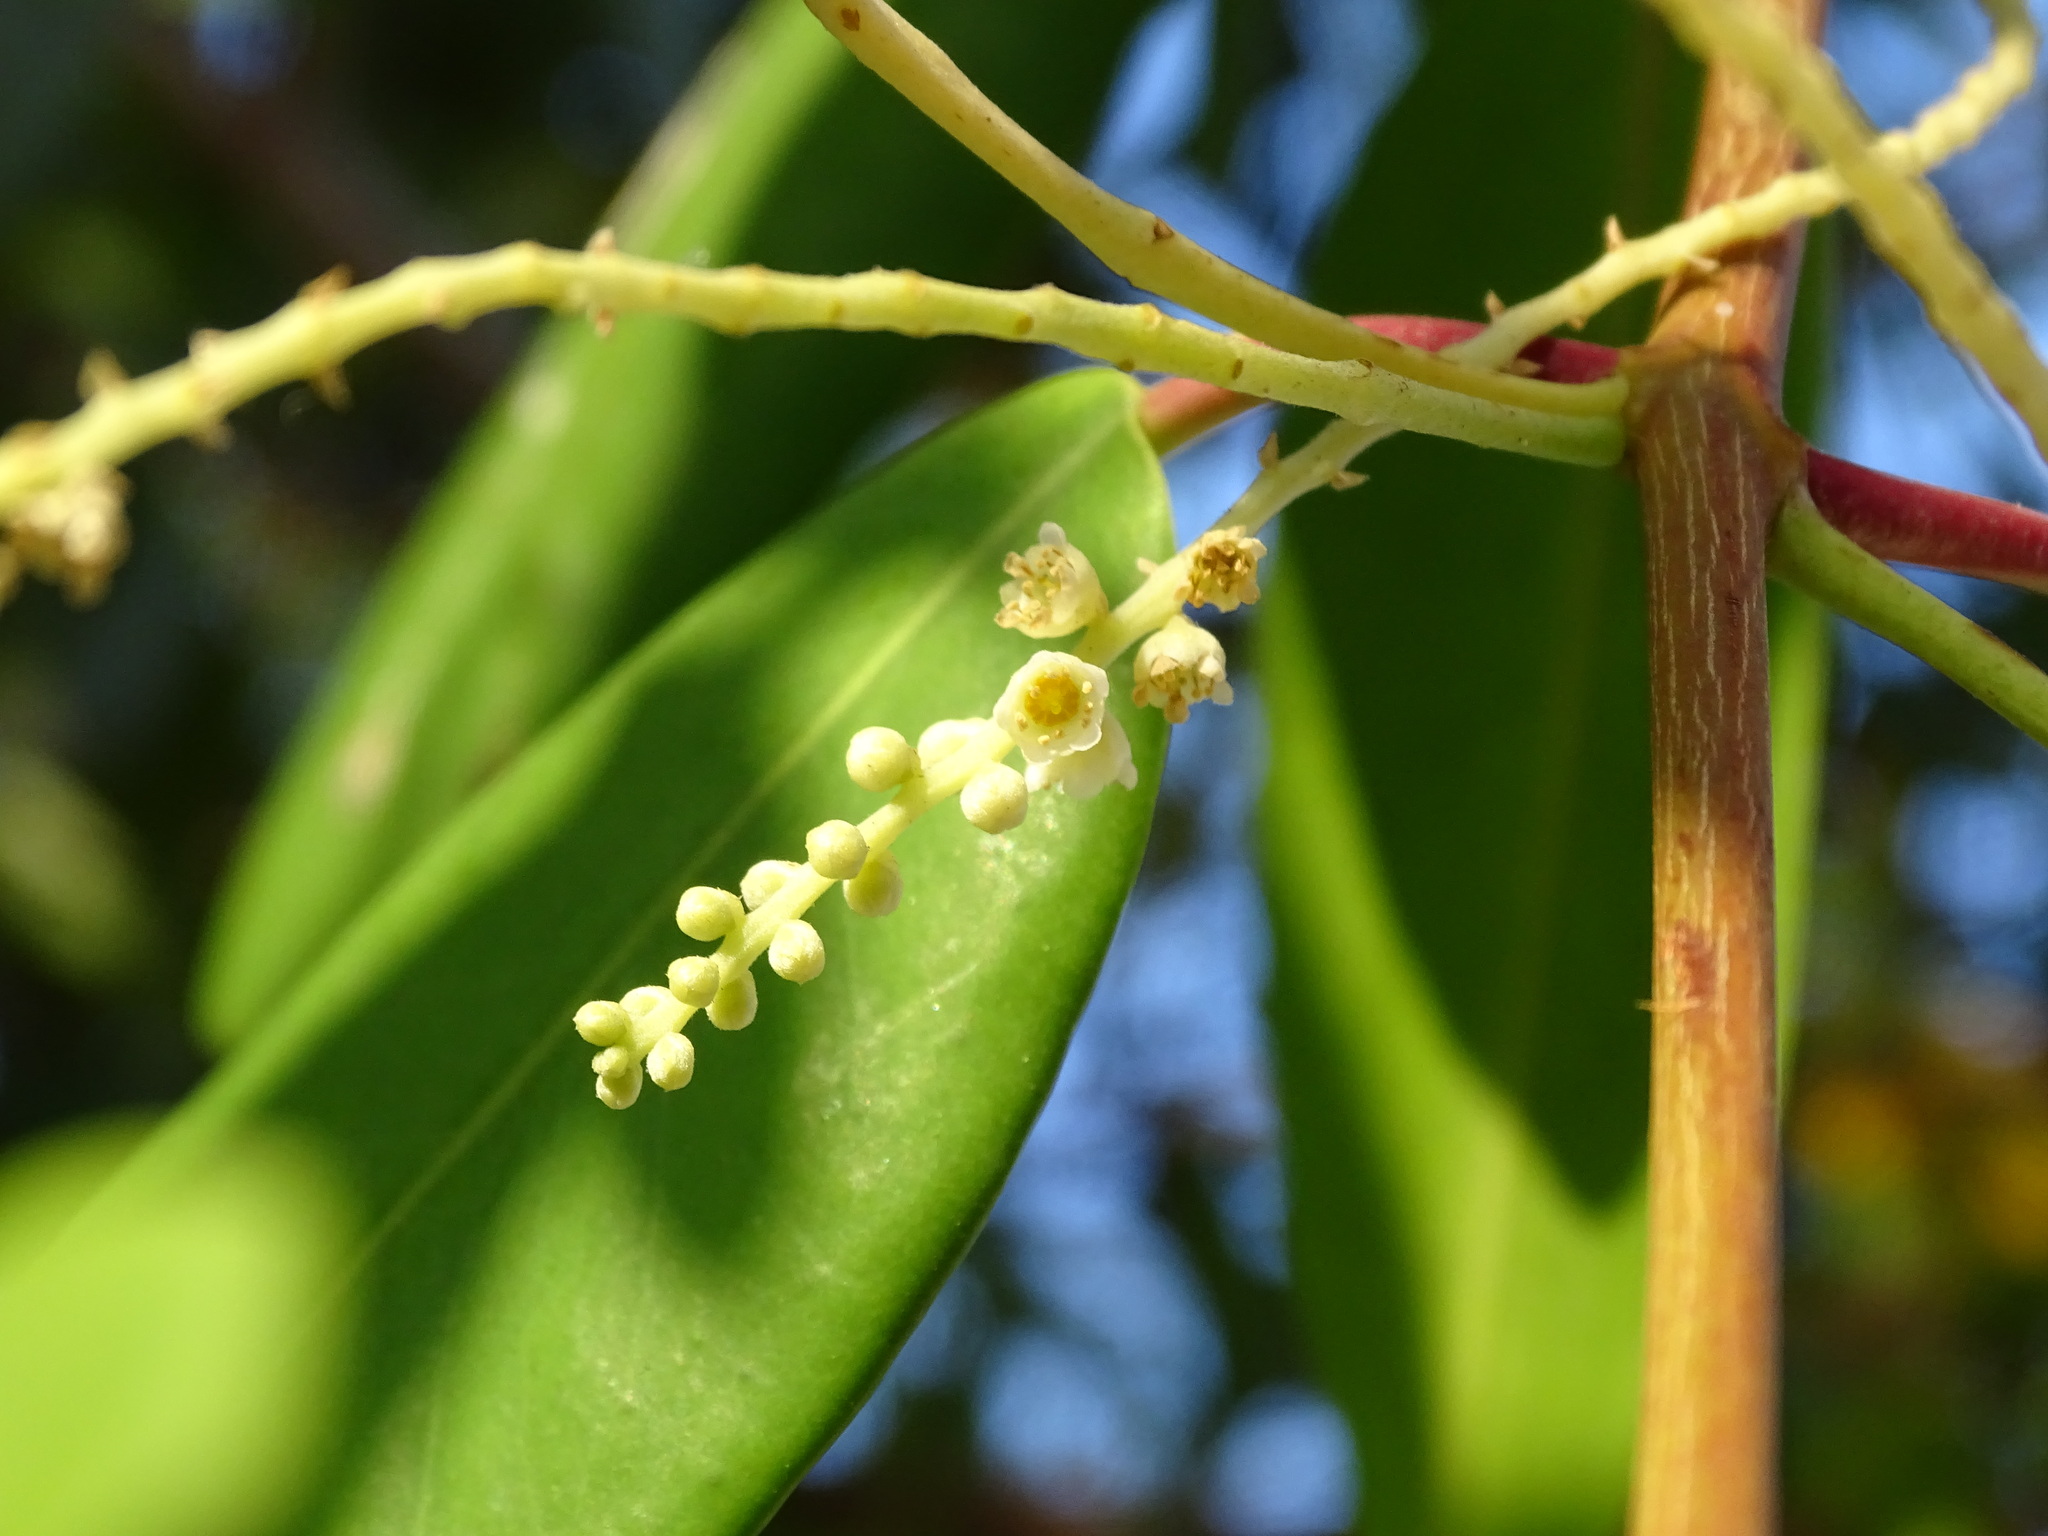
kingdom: Plantae
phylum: Tracheophyta
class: Magnoliopsida
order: Myrtales
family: Combretaceae
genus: Laguncularia
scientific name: Laguncularia racemosa
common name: White mangrove
